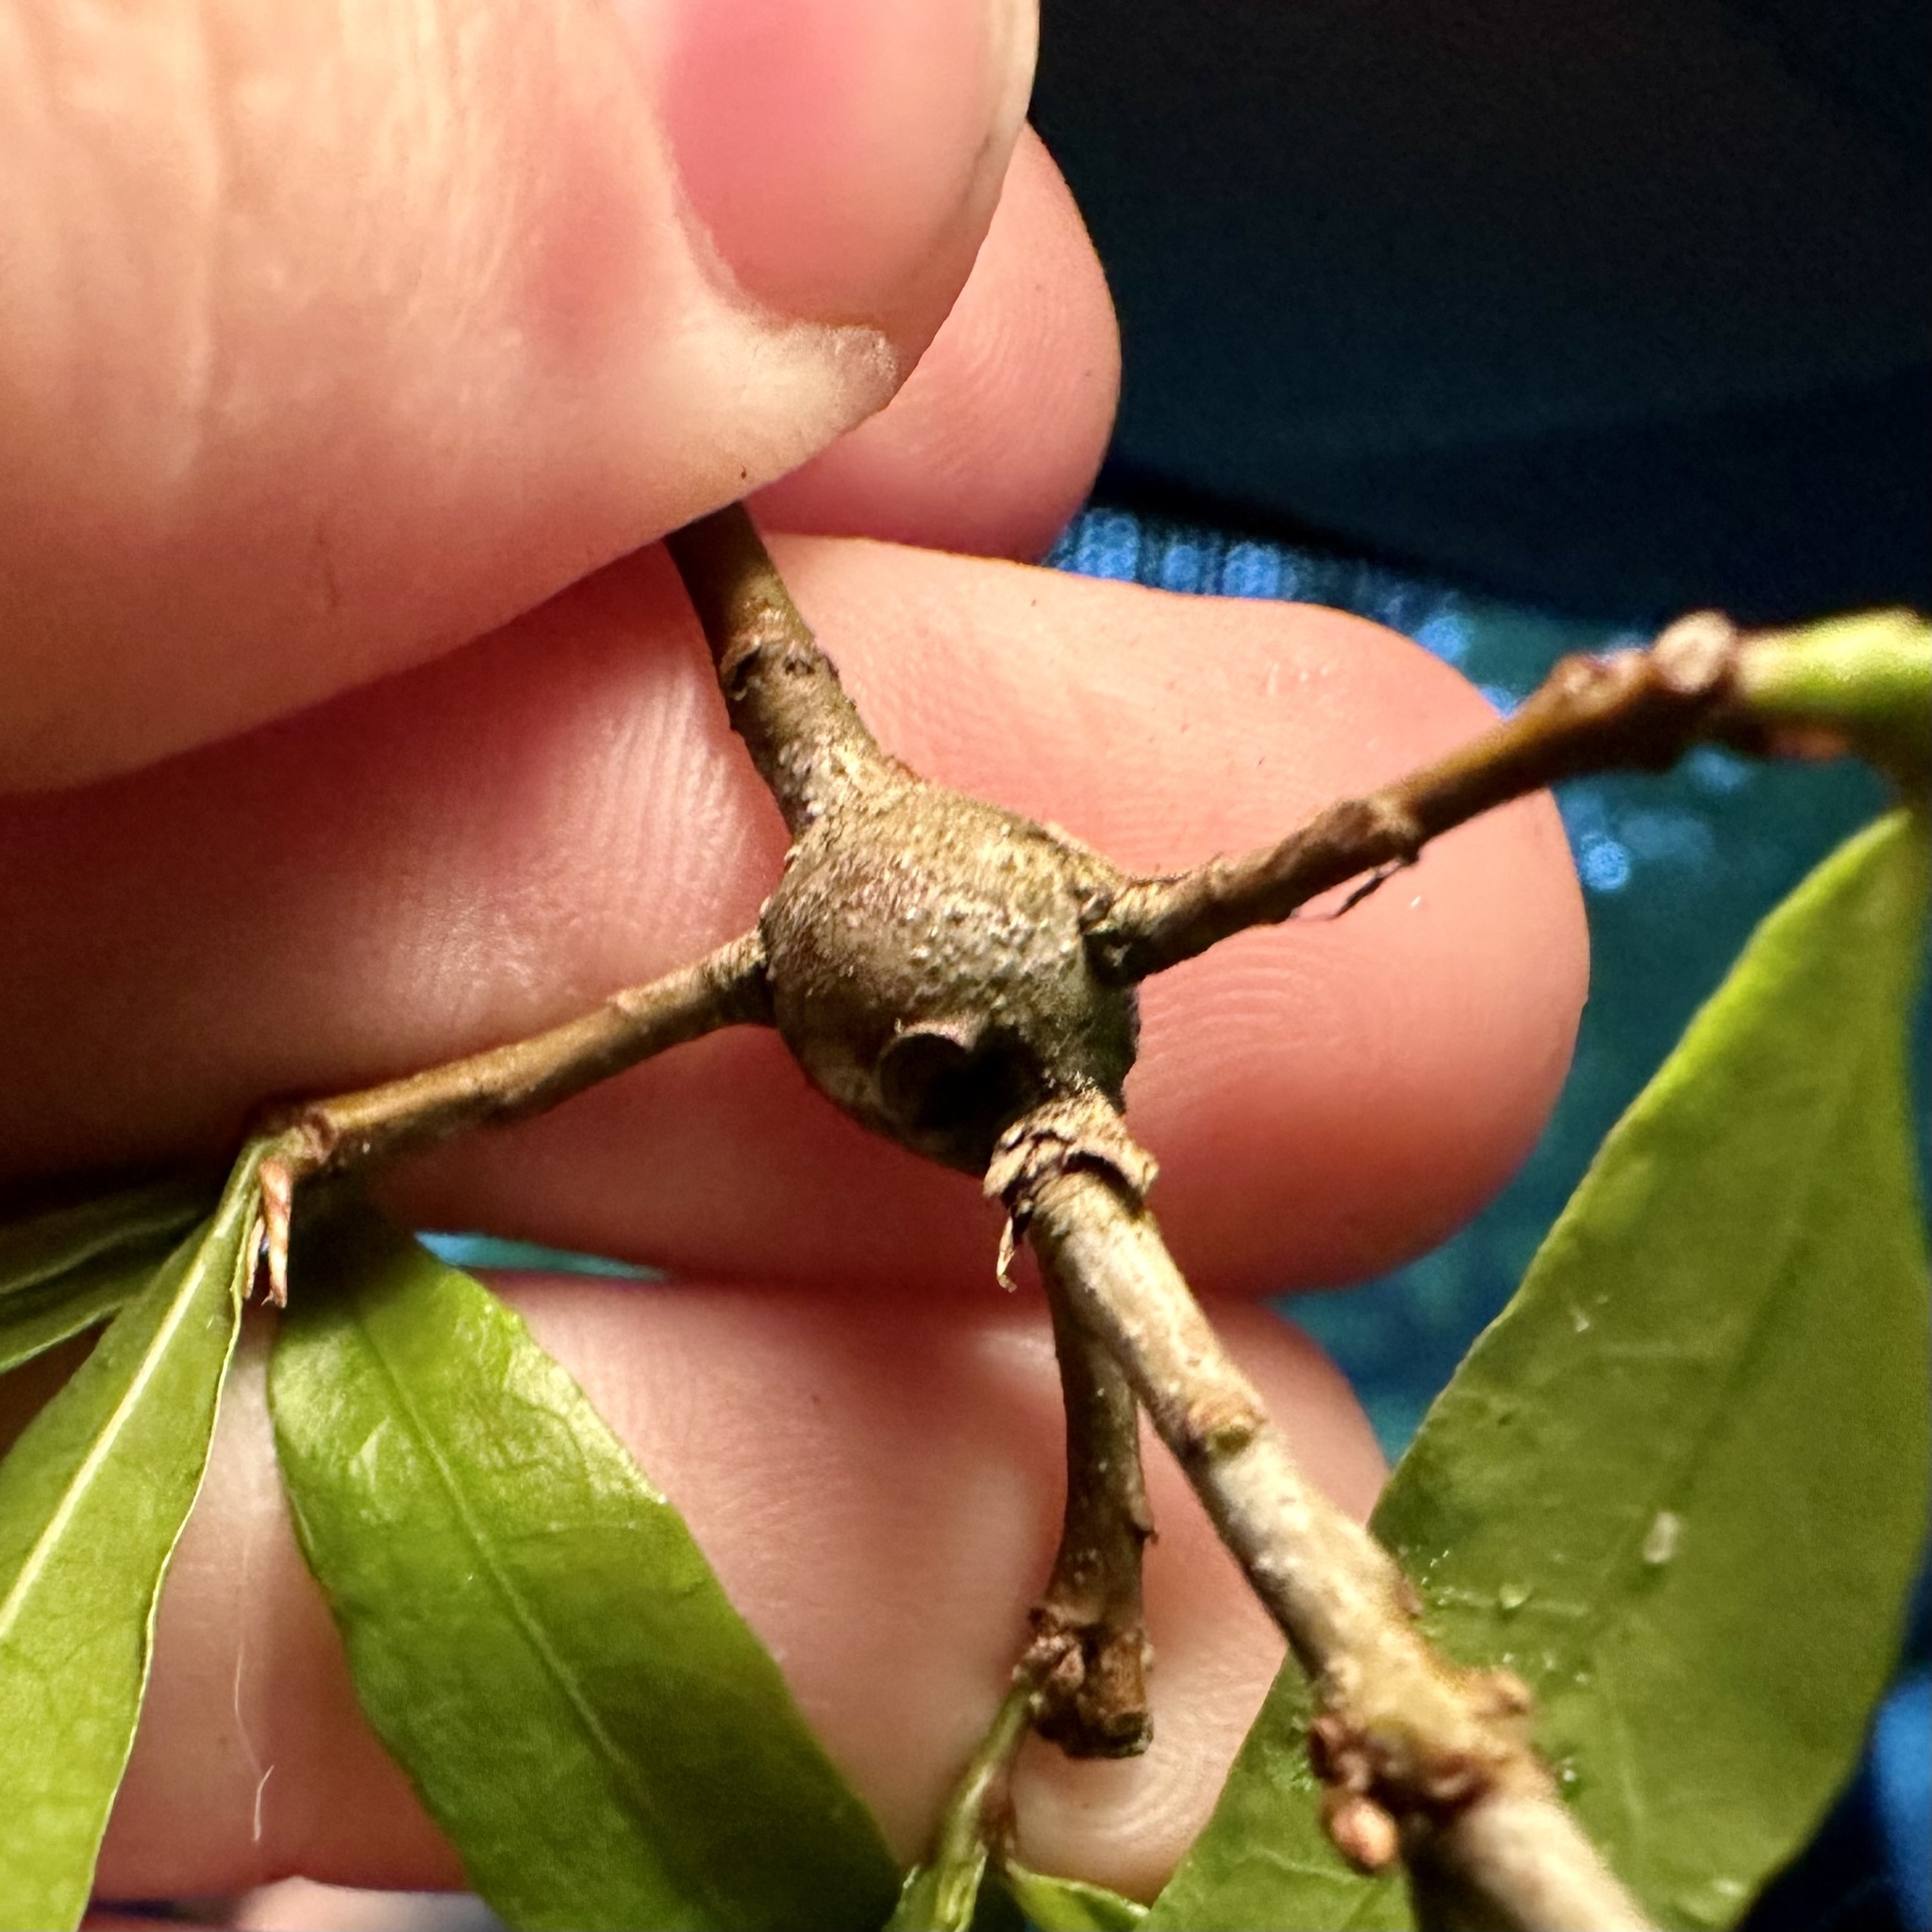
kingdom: Animalia
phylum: Arthropoda
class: Insecta
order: Hymenoptera
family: Cynipidae
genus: Zapatella
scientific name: Zapatella quercusphellos
